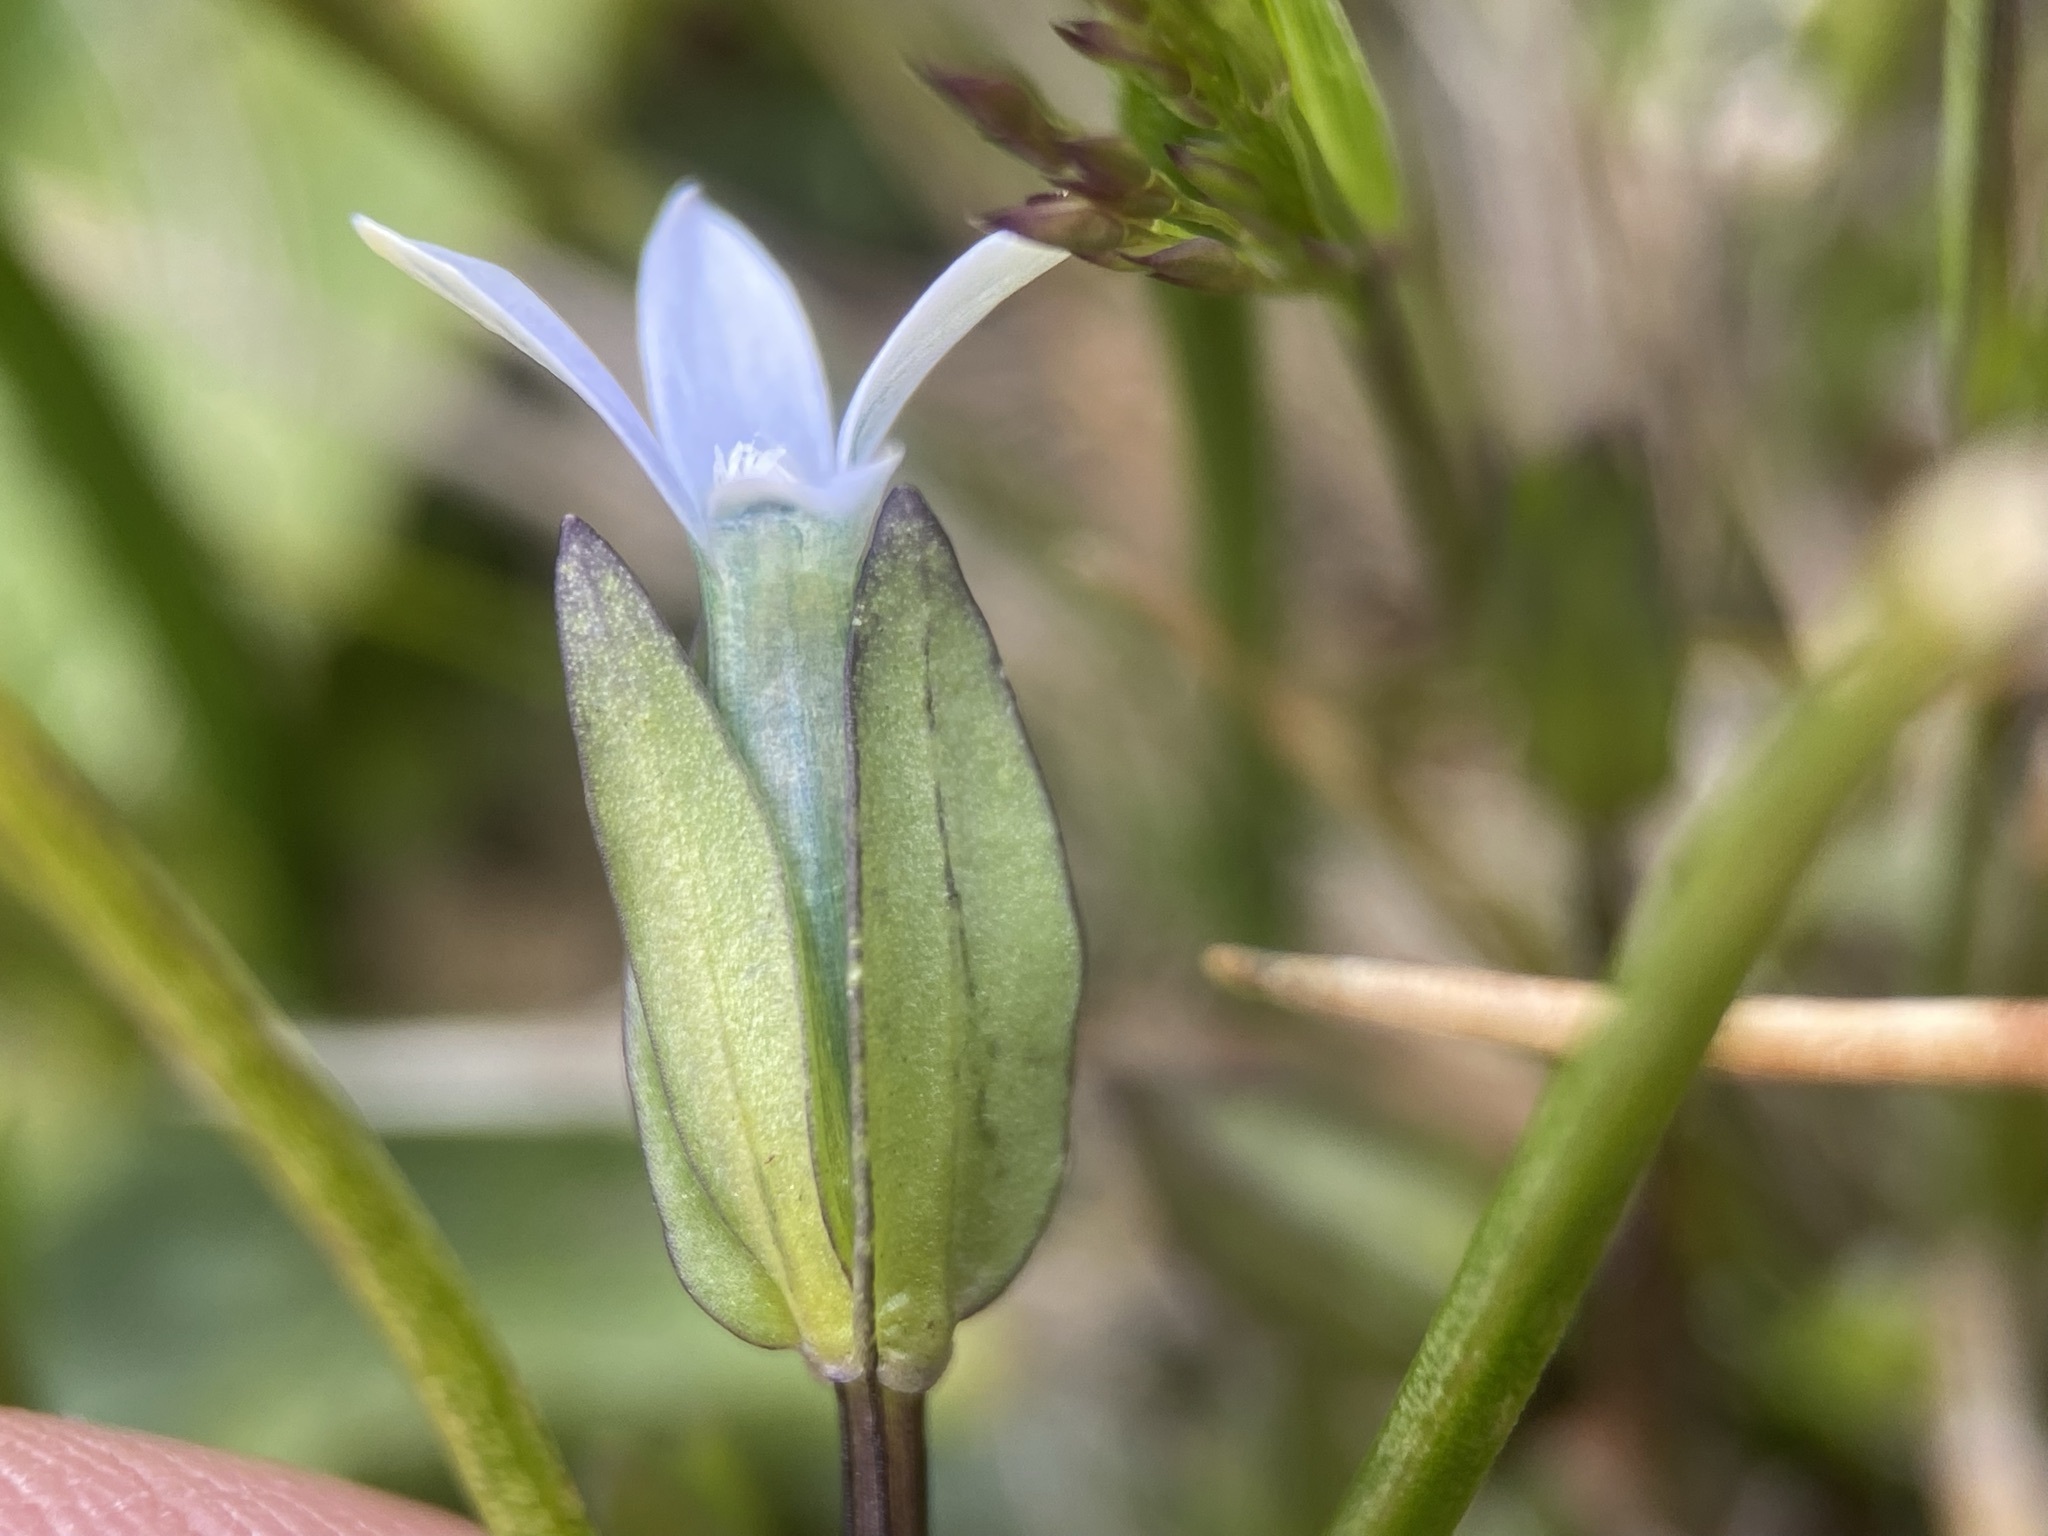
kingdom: Plantae
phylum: Tracheophyta
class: Magnoliopsida
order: Gentianales
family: Gentianaceae
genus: Comastoma
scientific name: Comastoma tenellum
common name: Dane's dwarf gentian
